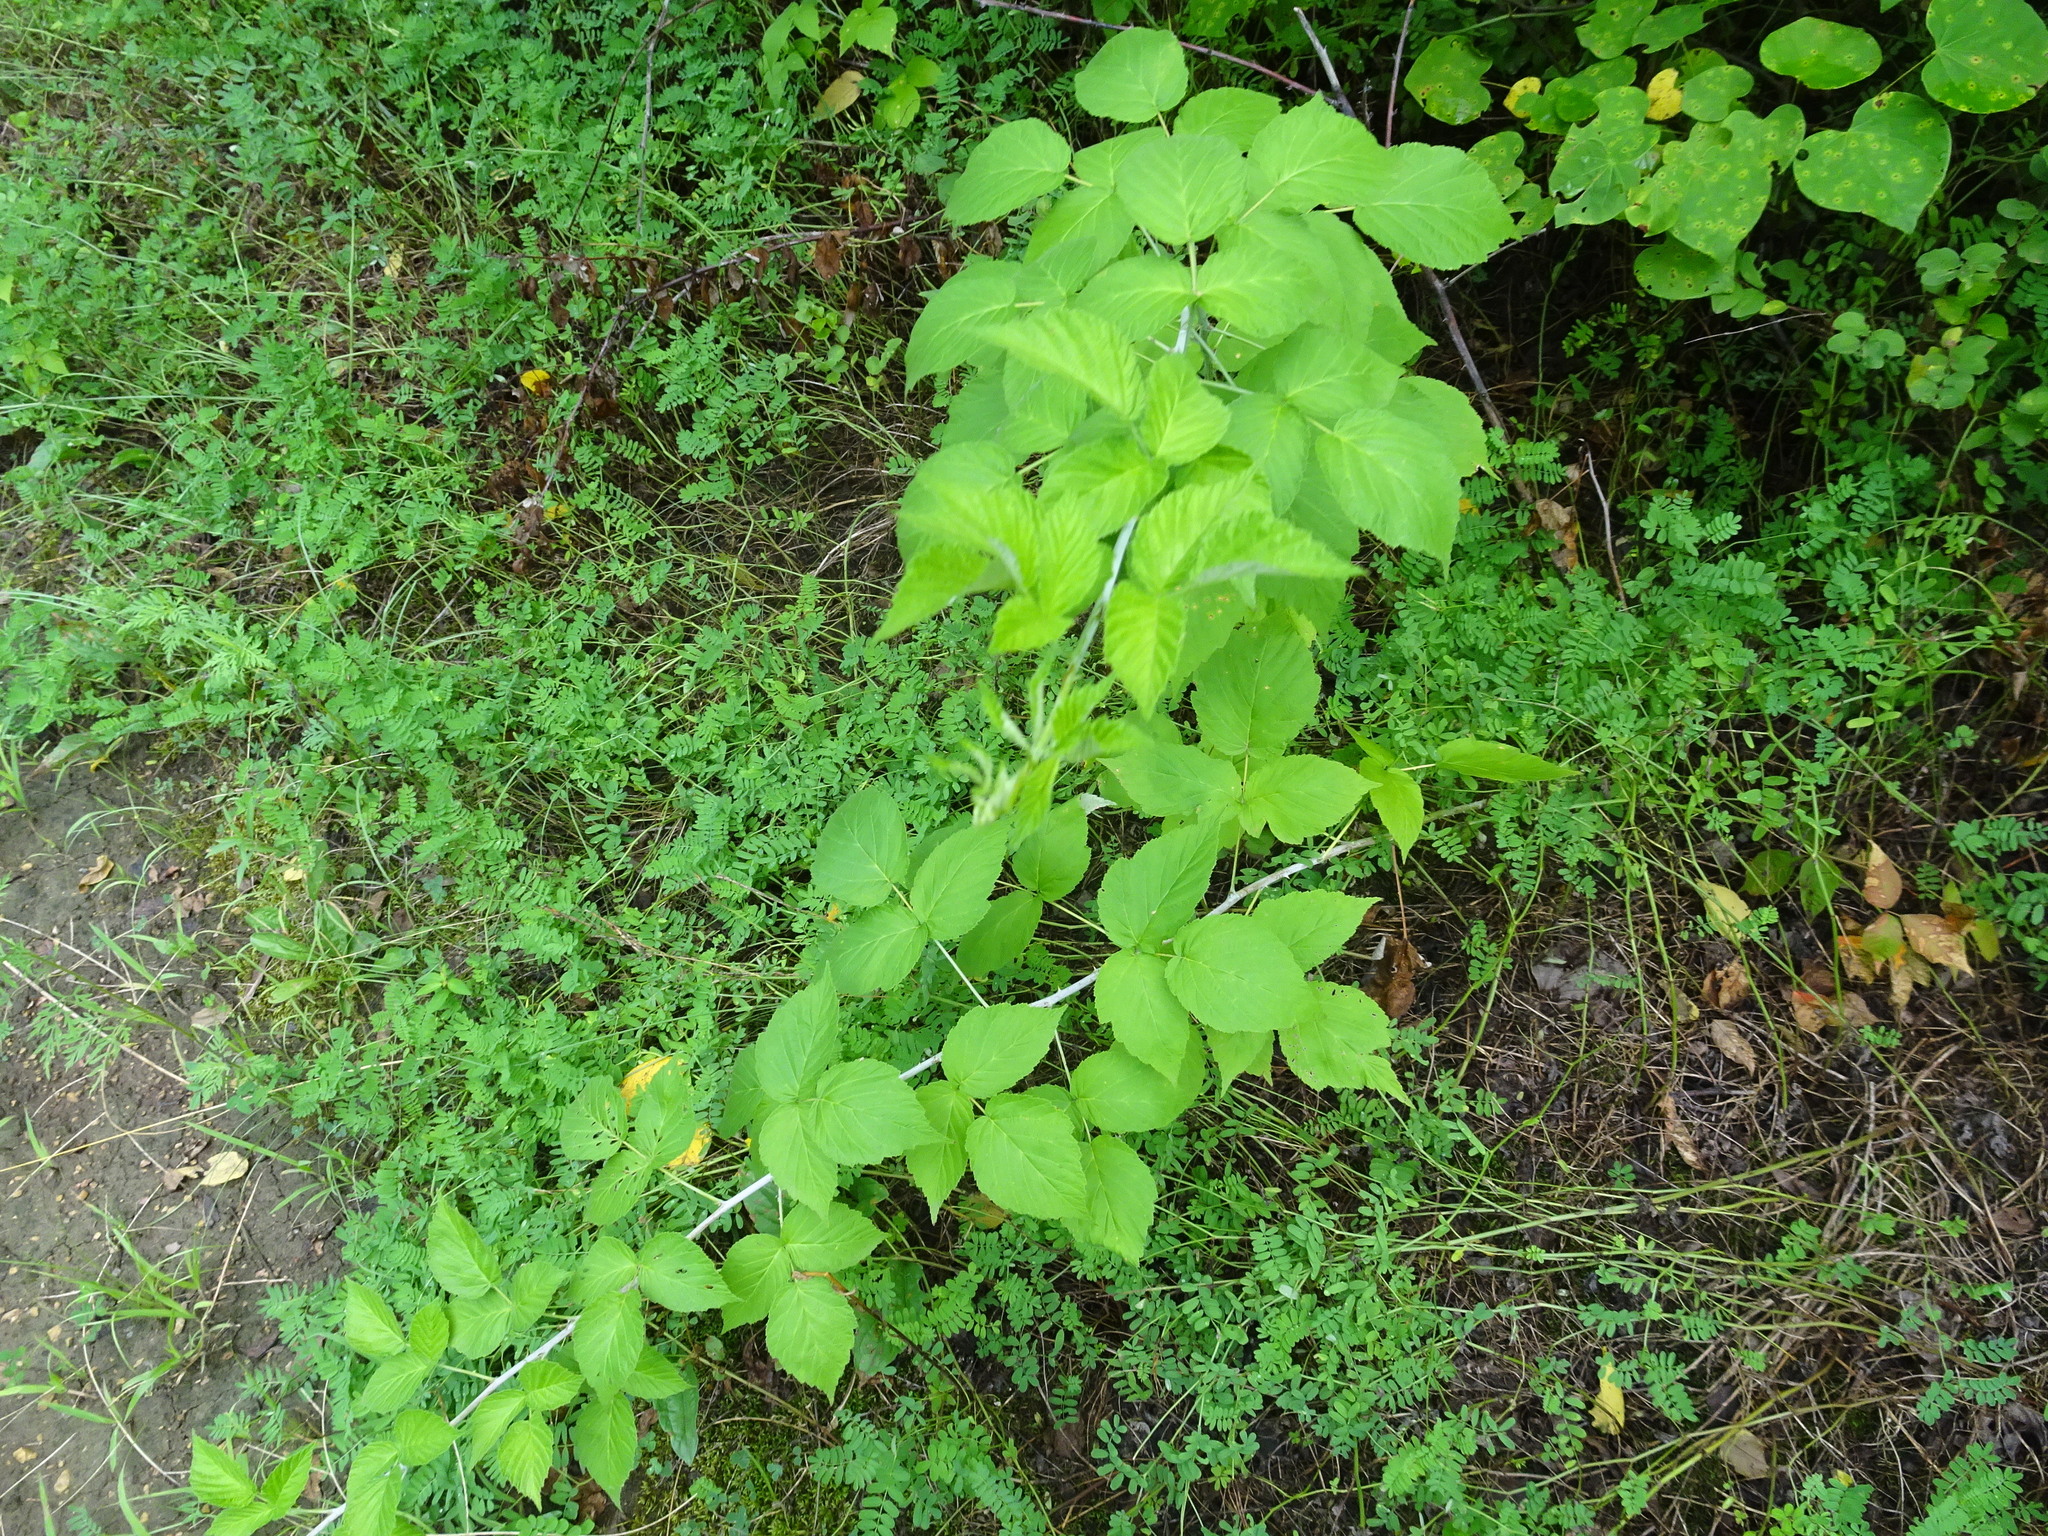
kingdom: Plantae
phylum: Tracheophyta
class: Magnoliopsida
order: Rosales
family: Rosaceae
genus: Rubus
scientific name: Rubus occidentalis
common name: Black raspberry
